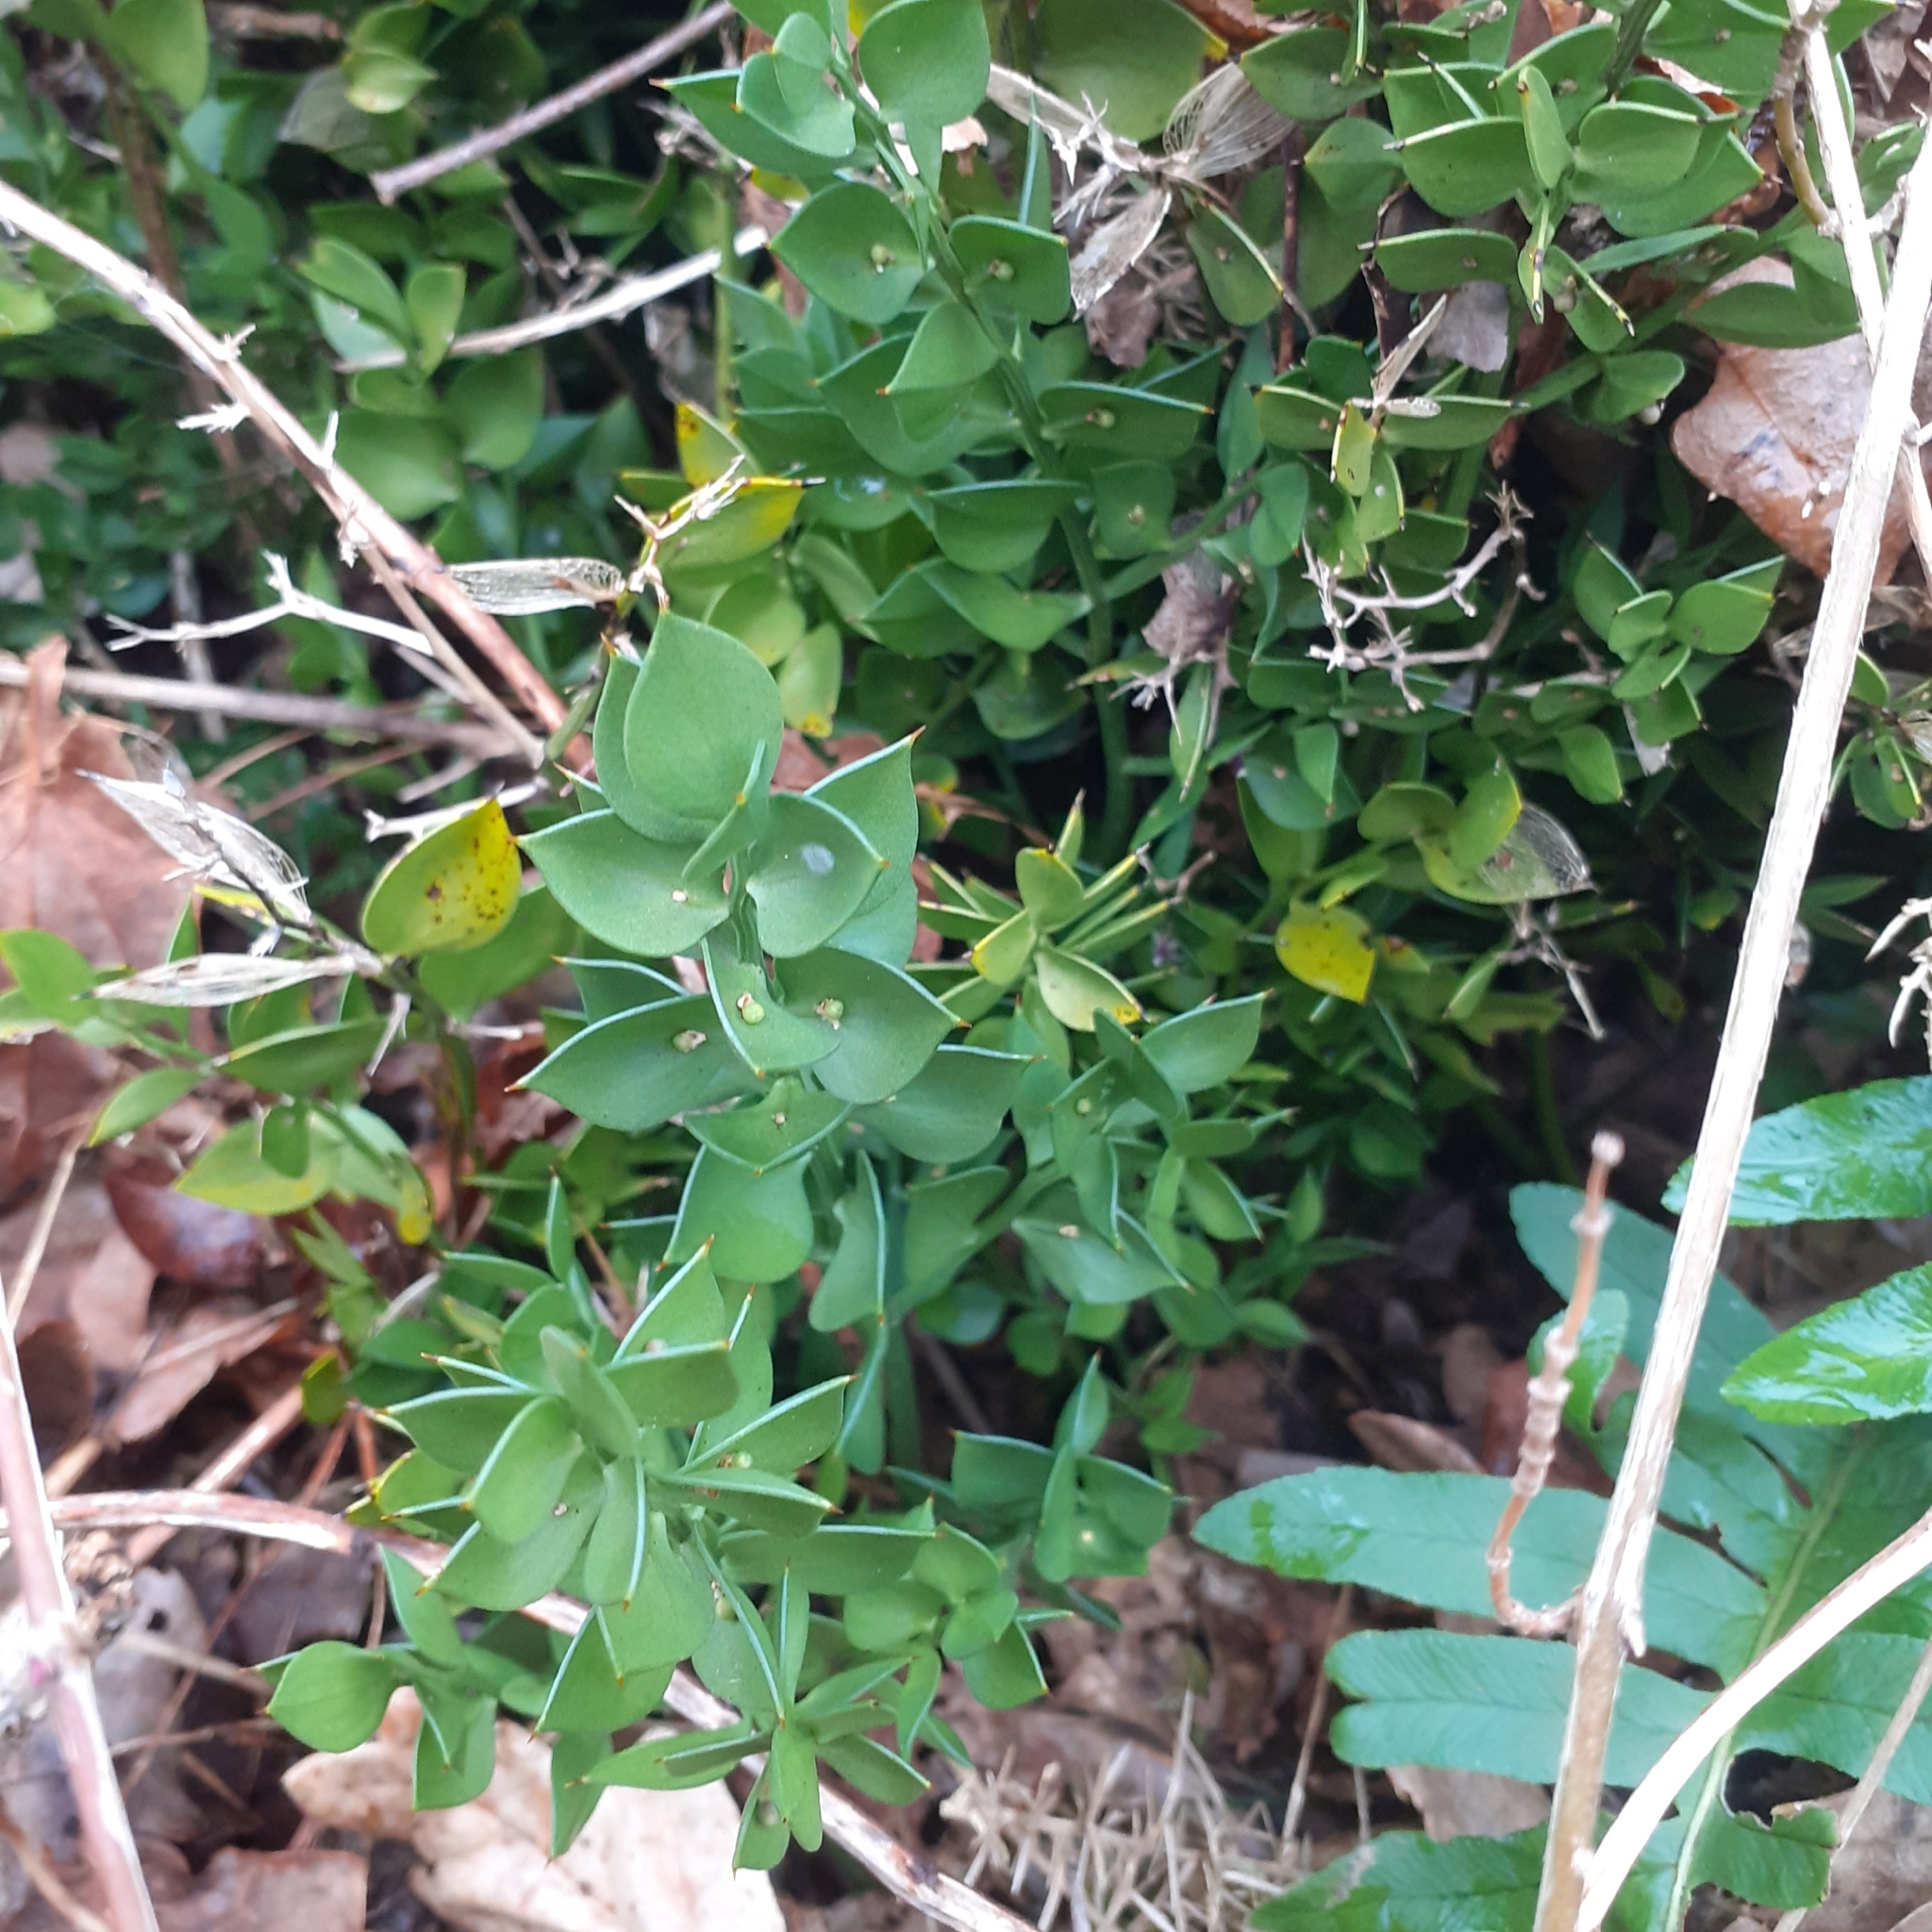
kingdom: Plantae
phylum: Tracheophyta
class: Liliopsida
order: Asparagales
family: Asparagaceae
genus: Ruscus
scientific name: Ruscus aculeatus
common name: Butcher's-broom
